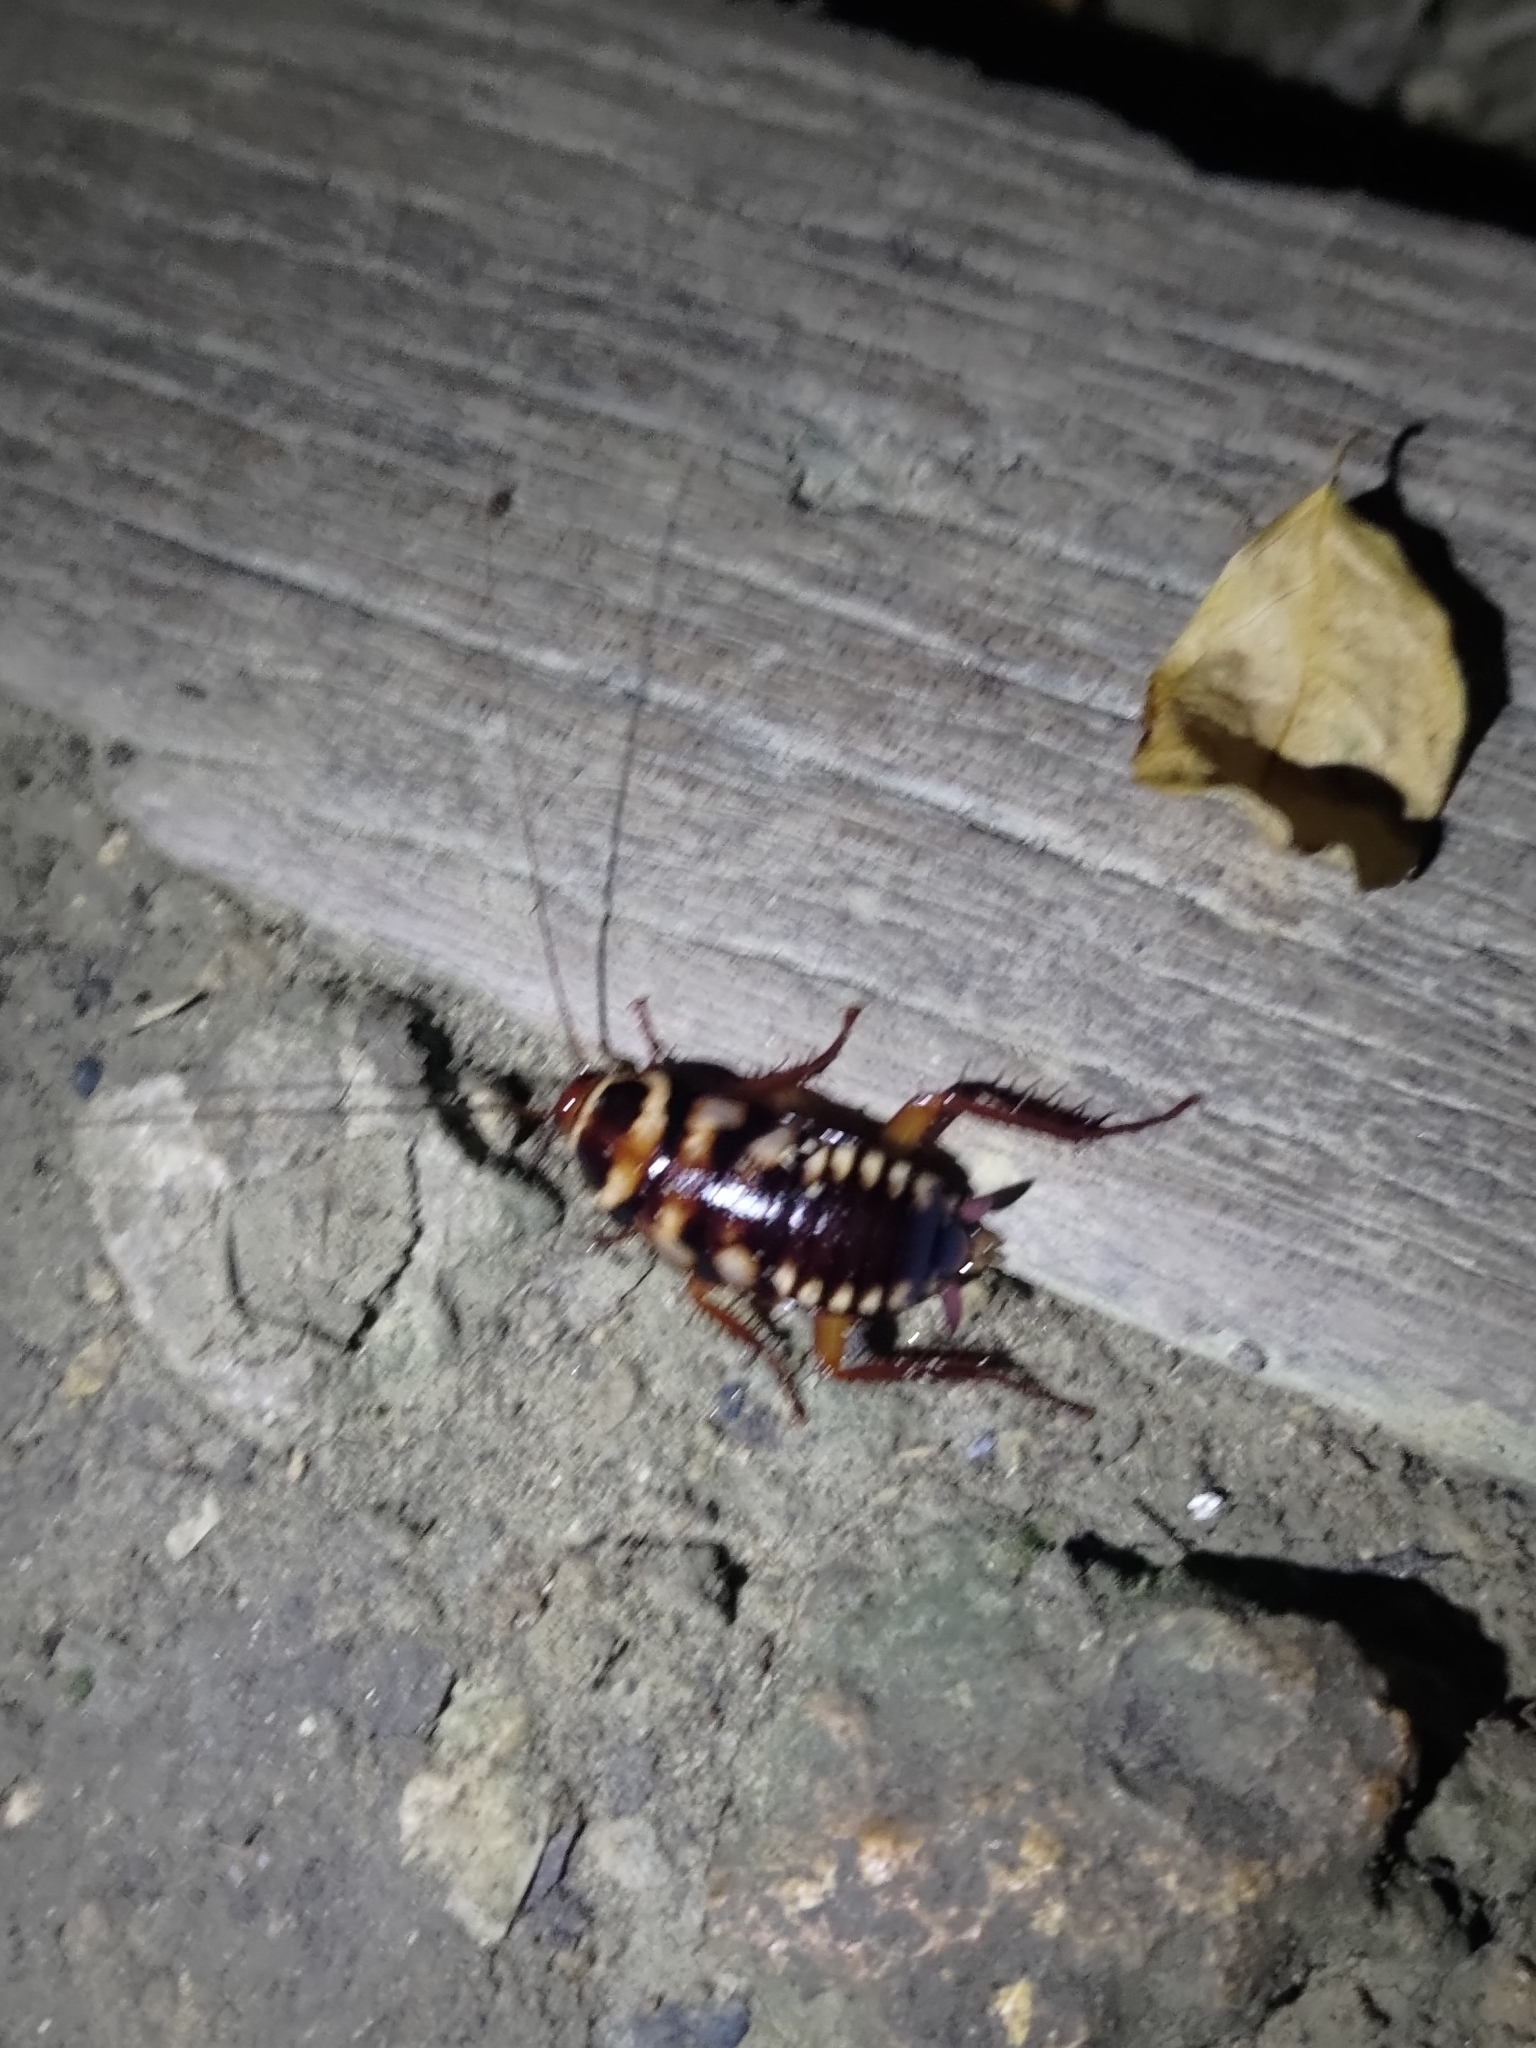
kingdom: Animalia
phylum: Arthropoda
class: Insecta
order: Blattodea
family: Blattidae
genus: Periplaneta
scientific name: Periplaneta australasiae
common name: Australian cockroach
